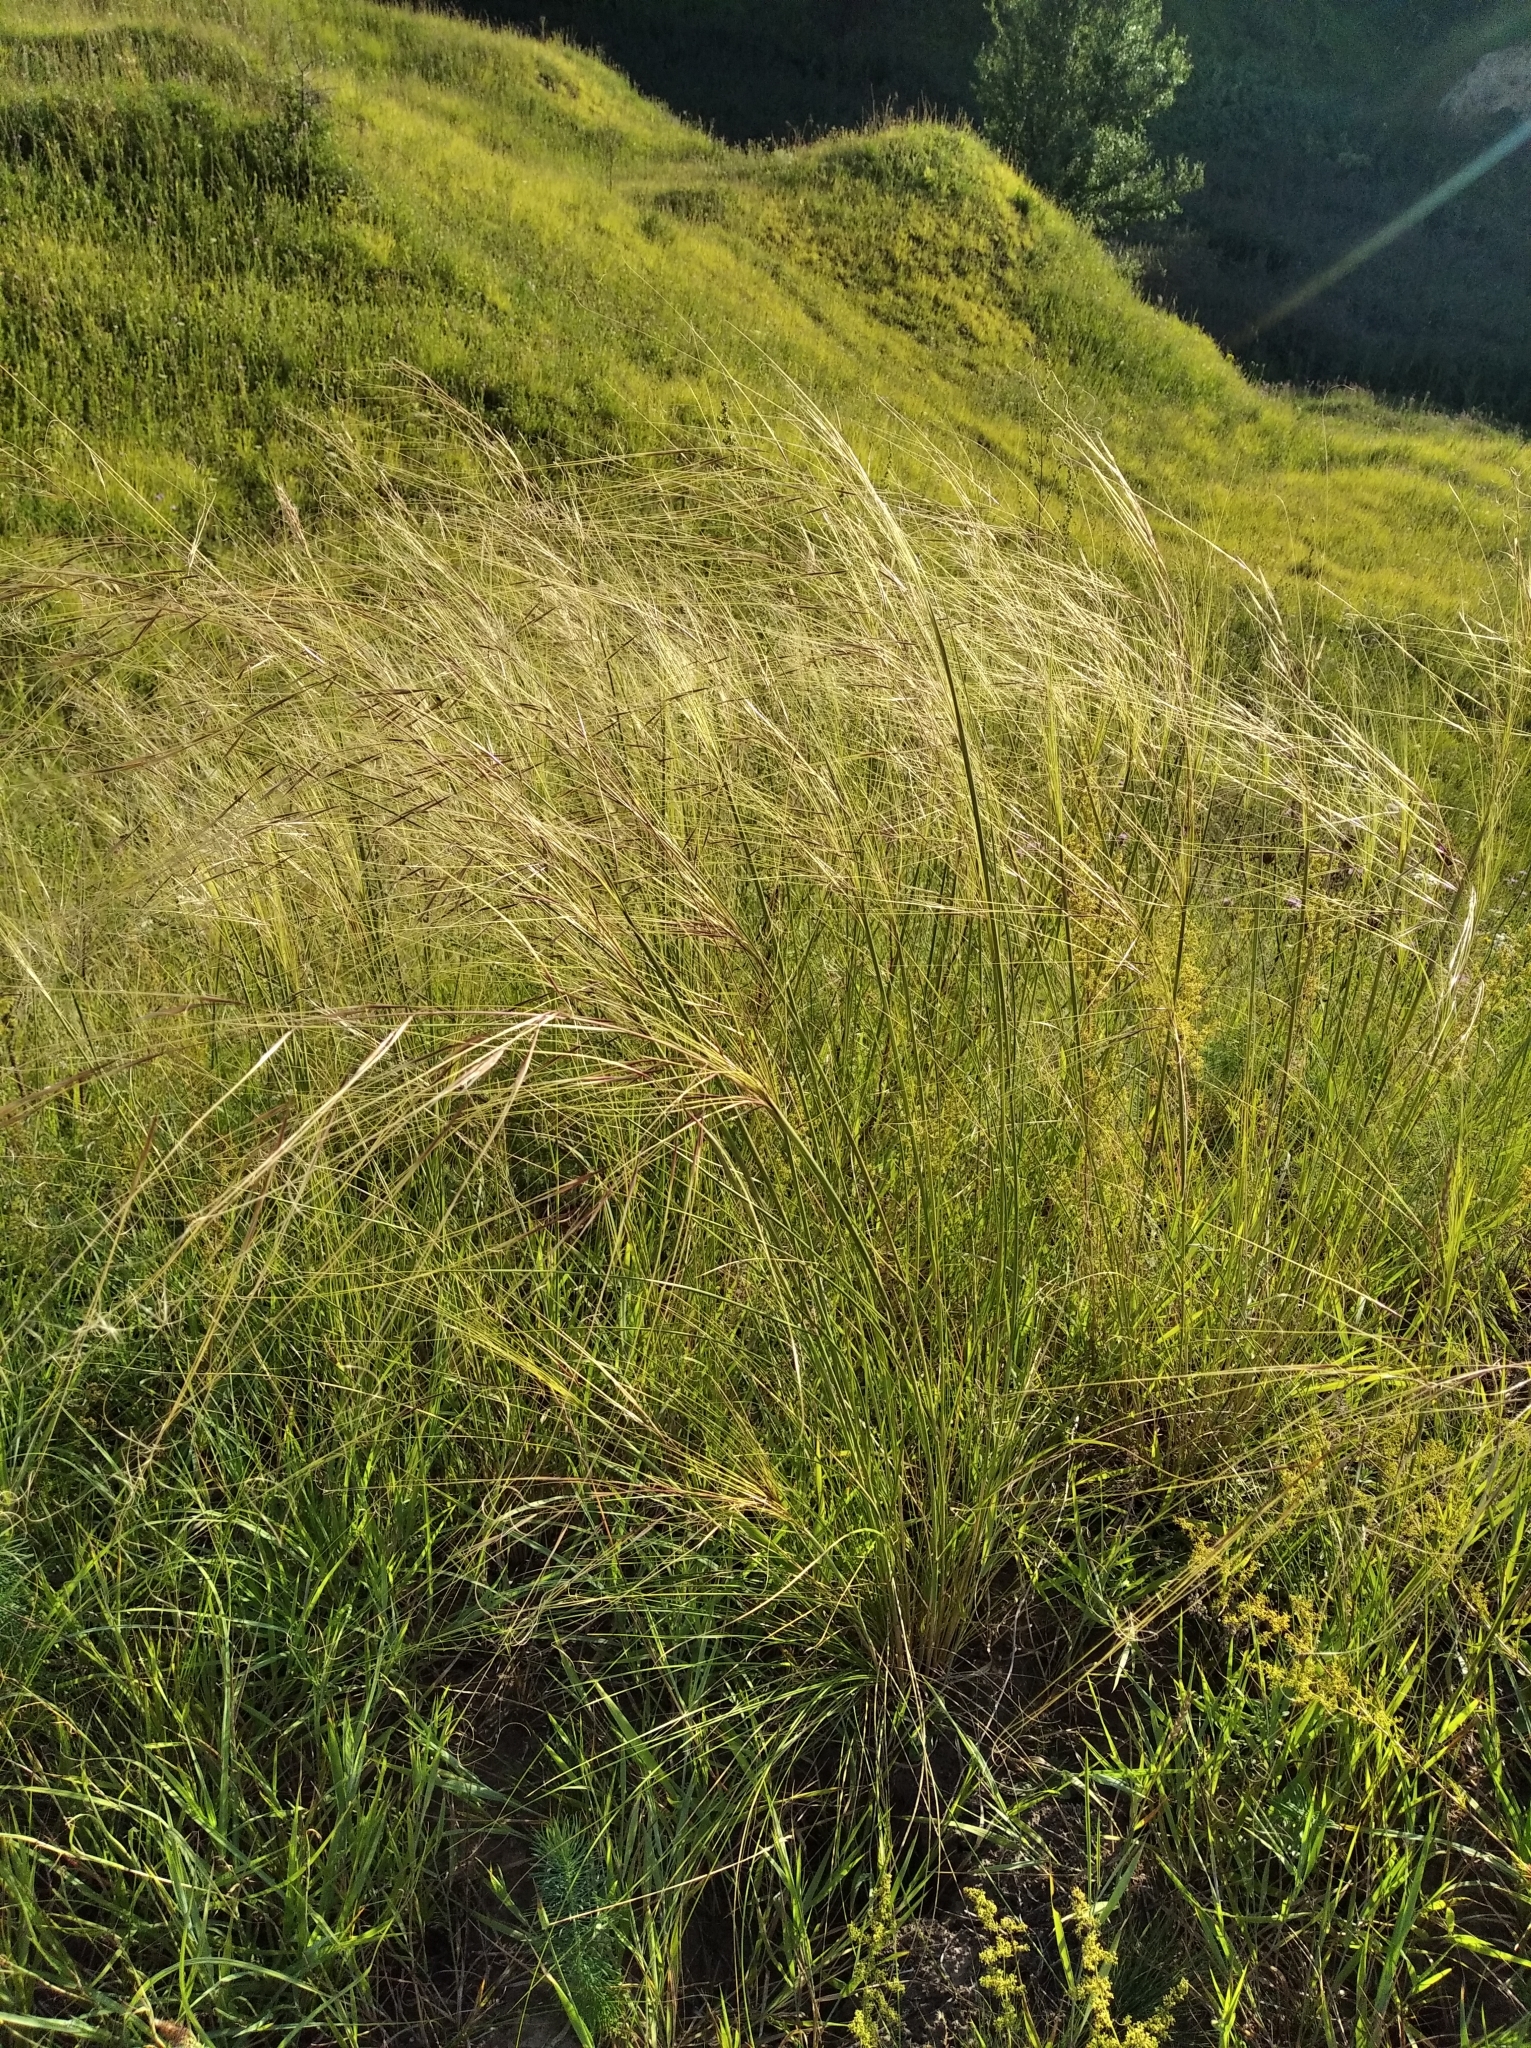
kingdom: Plantae
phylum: Tracheophyta
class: Liliopsida
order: Poales
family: Poaceae
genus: Stipa
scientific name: Stipa capillata
